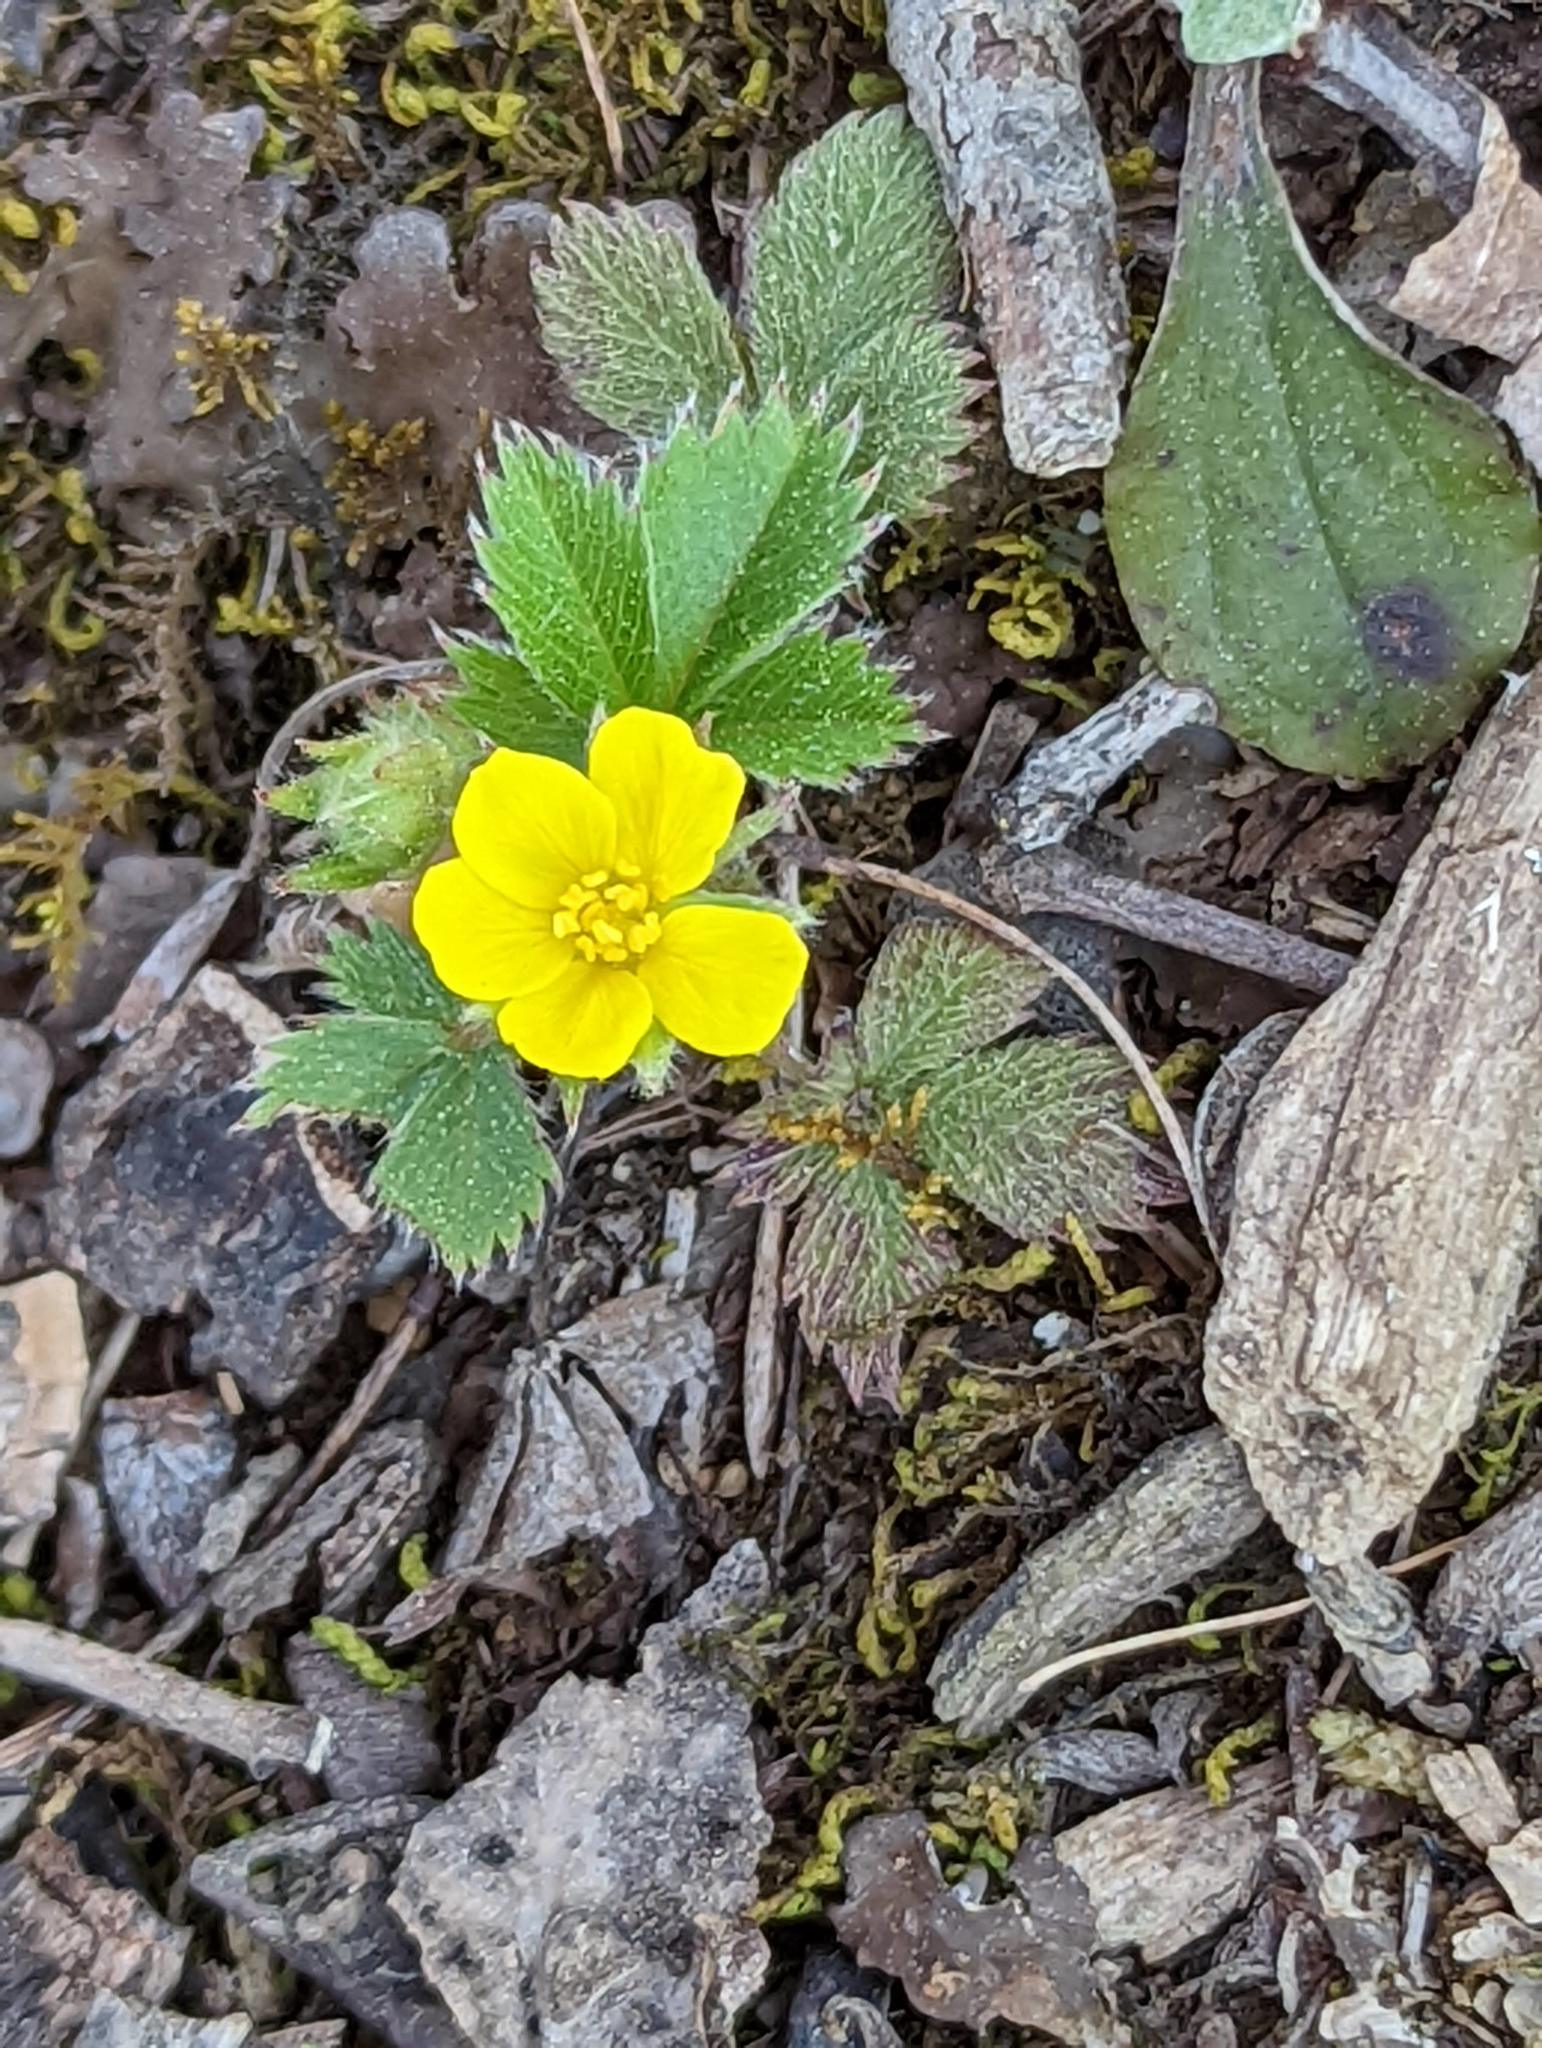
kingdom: Plantae
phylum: Tracheophyta
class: Magnoliopsida
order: Rosales
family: Rosaceae
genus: Potentilla
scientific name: Potentilla canadensis
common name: Canada cinquefoil
